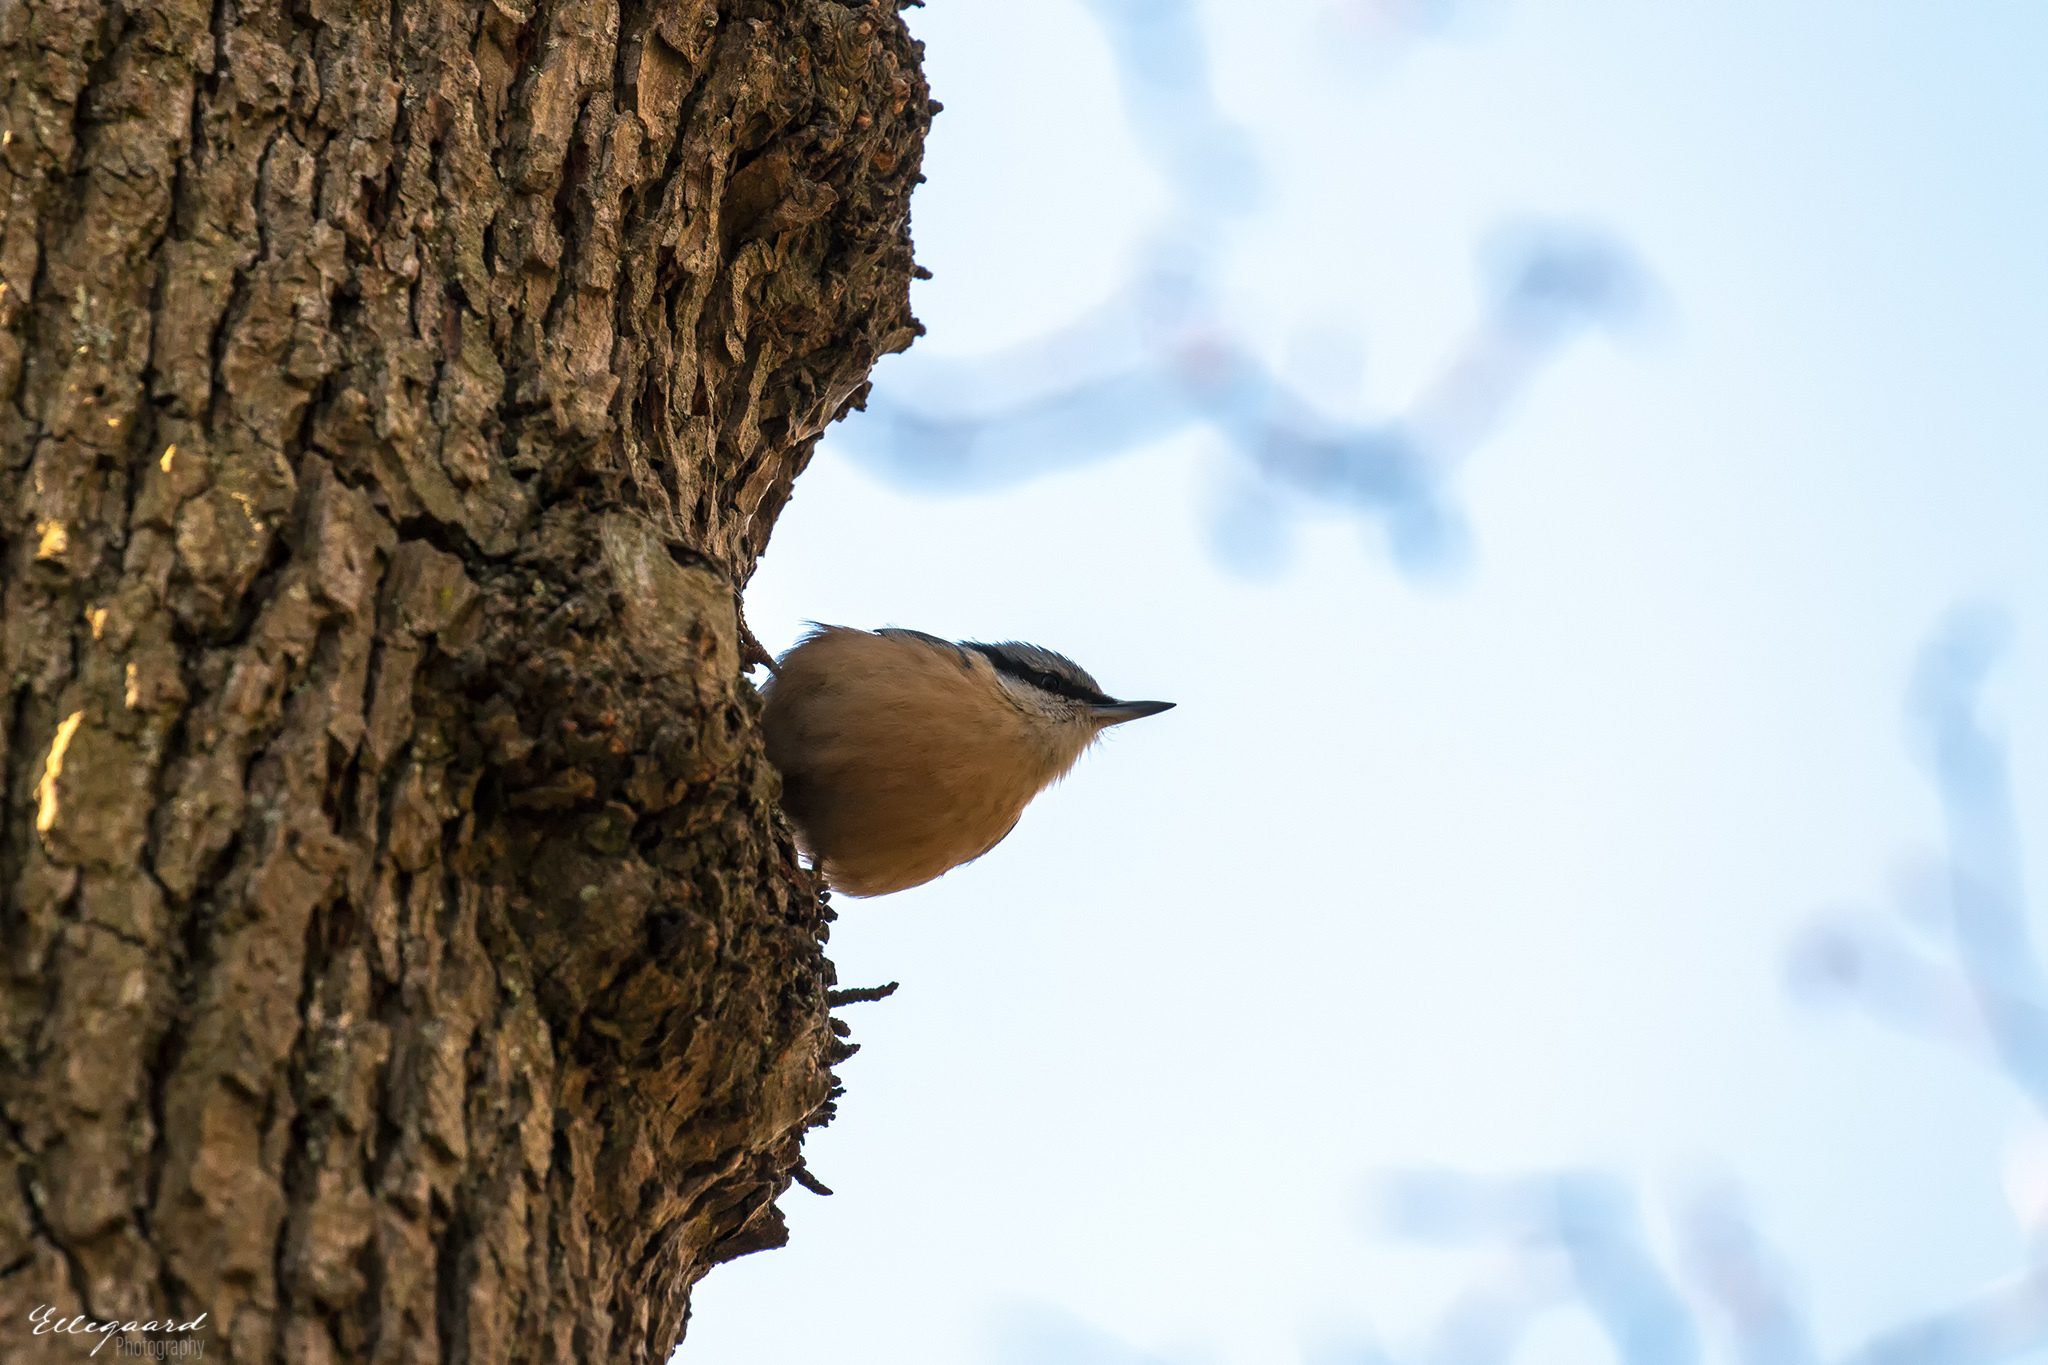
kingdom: Animalia
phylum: Chordata
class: Aves
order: Passeriformes
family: Sittidae
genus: Sitta
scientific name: Sitta europaea
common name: Eurasian nuthatch
